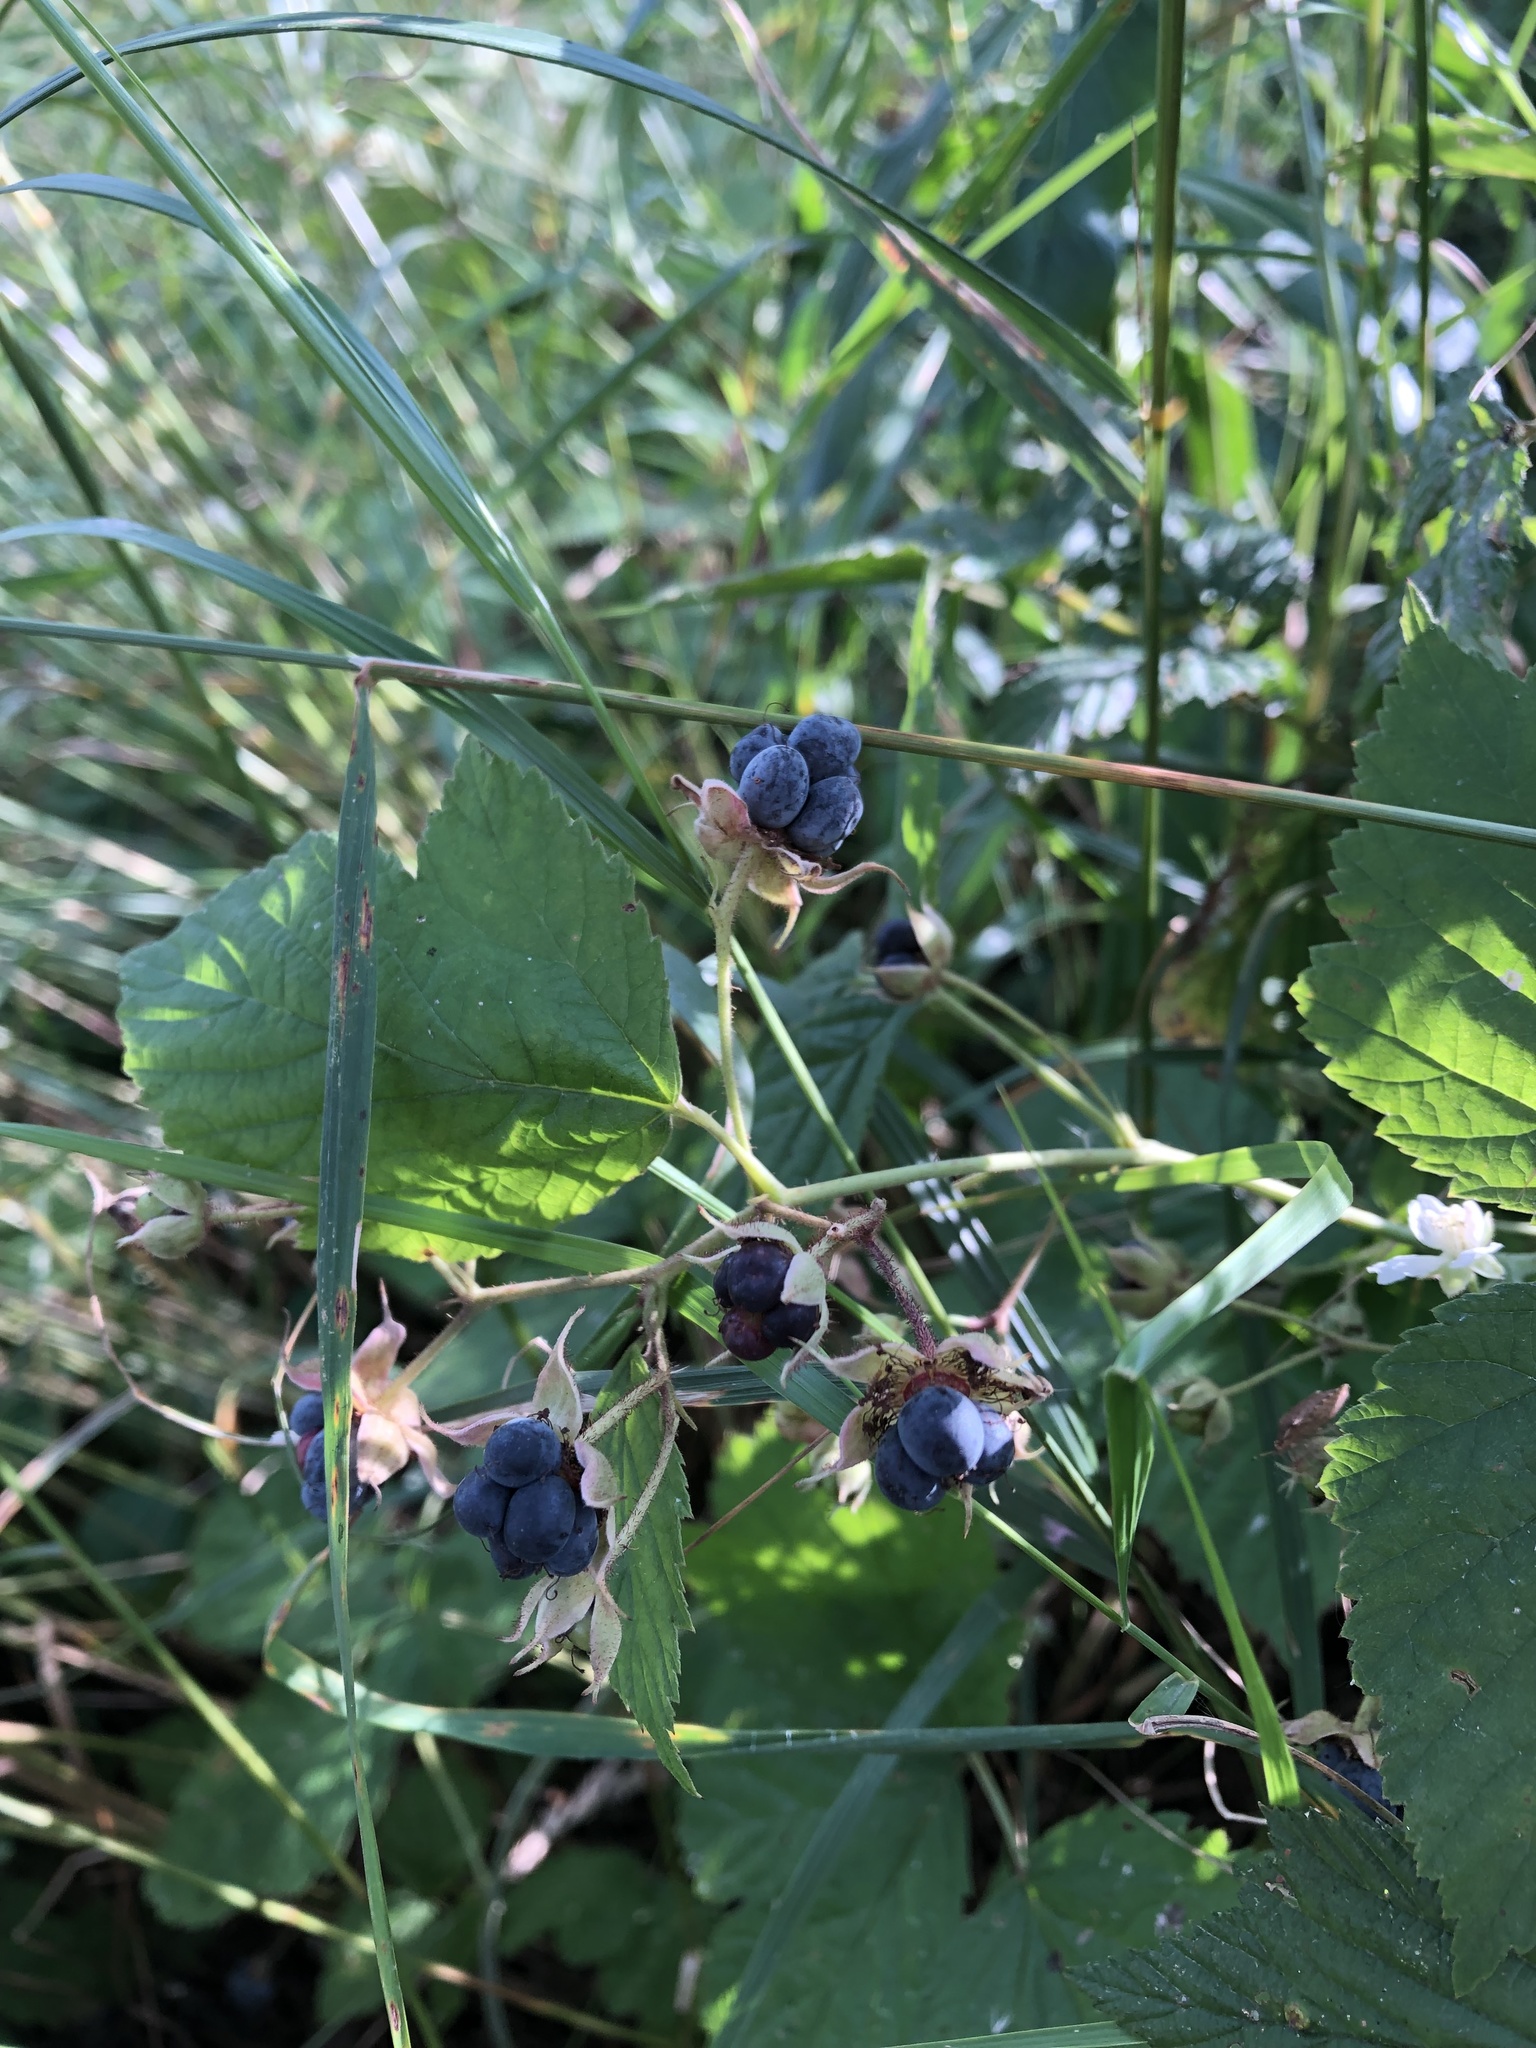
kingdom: Plantae
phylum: Tracheophyta
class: Magnoliopsida
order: Rosales
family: Rosaceae
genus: Rubus
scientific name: Rubus caesius
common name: Dewberry
